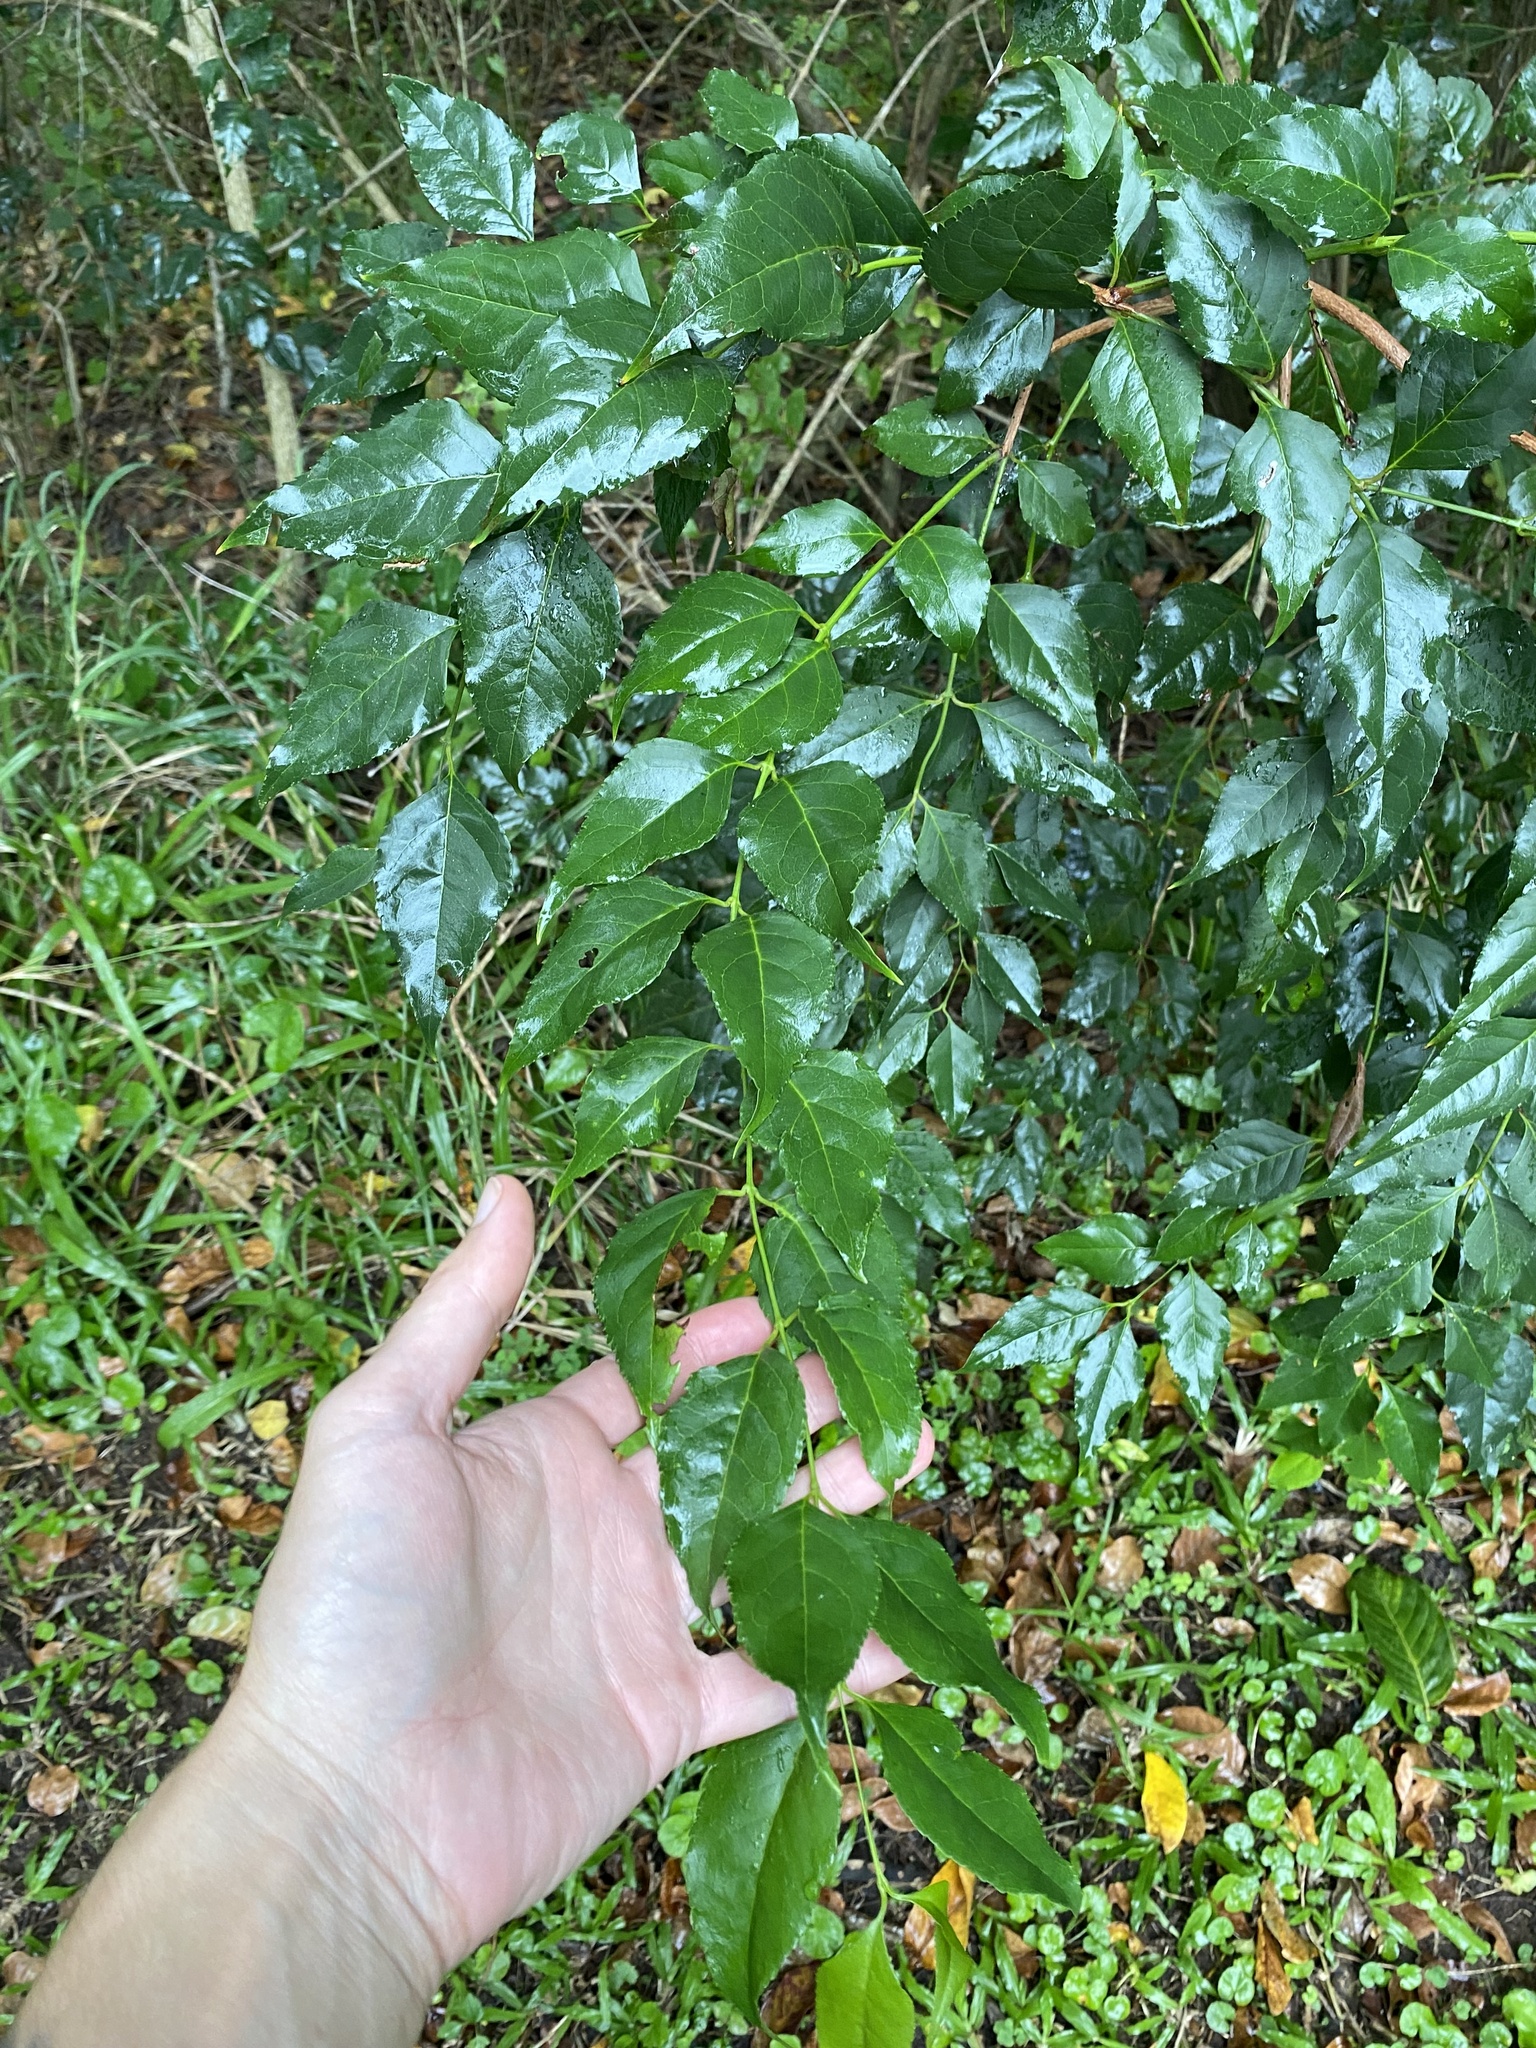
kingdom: Plantae
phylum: Tracheophyta
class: Magnoliopsida
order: Lamiales
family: Stilbaceae
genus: Halleria
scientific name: Halleria lucida
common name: Tree fuschia
